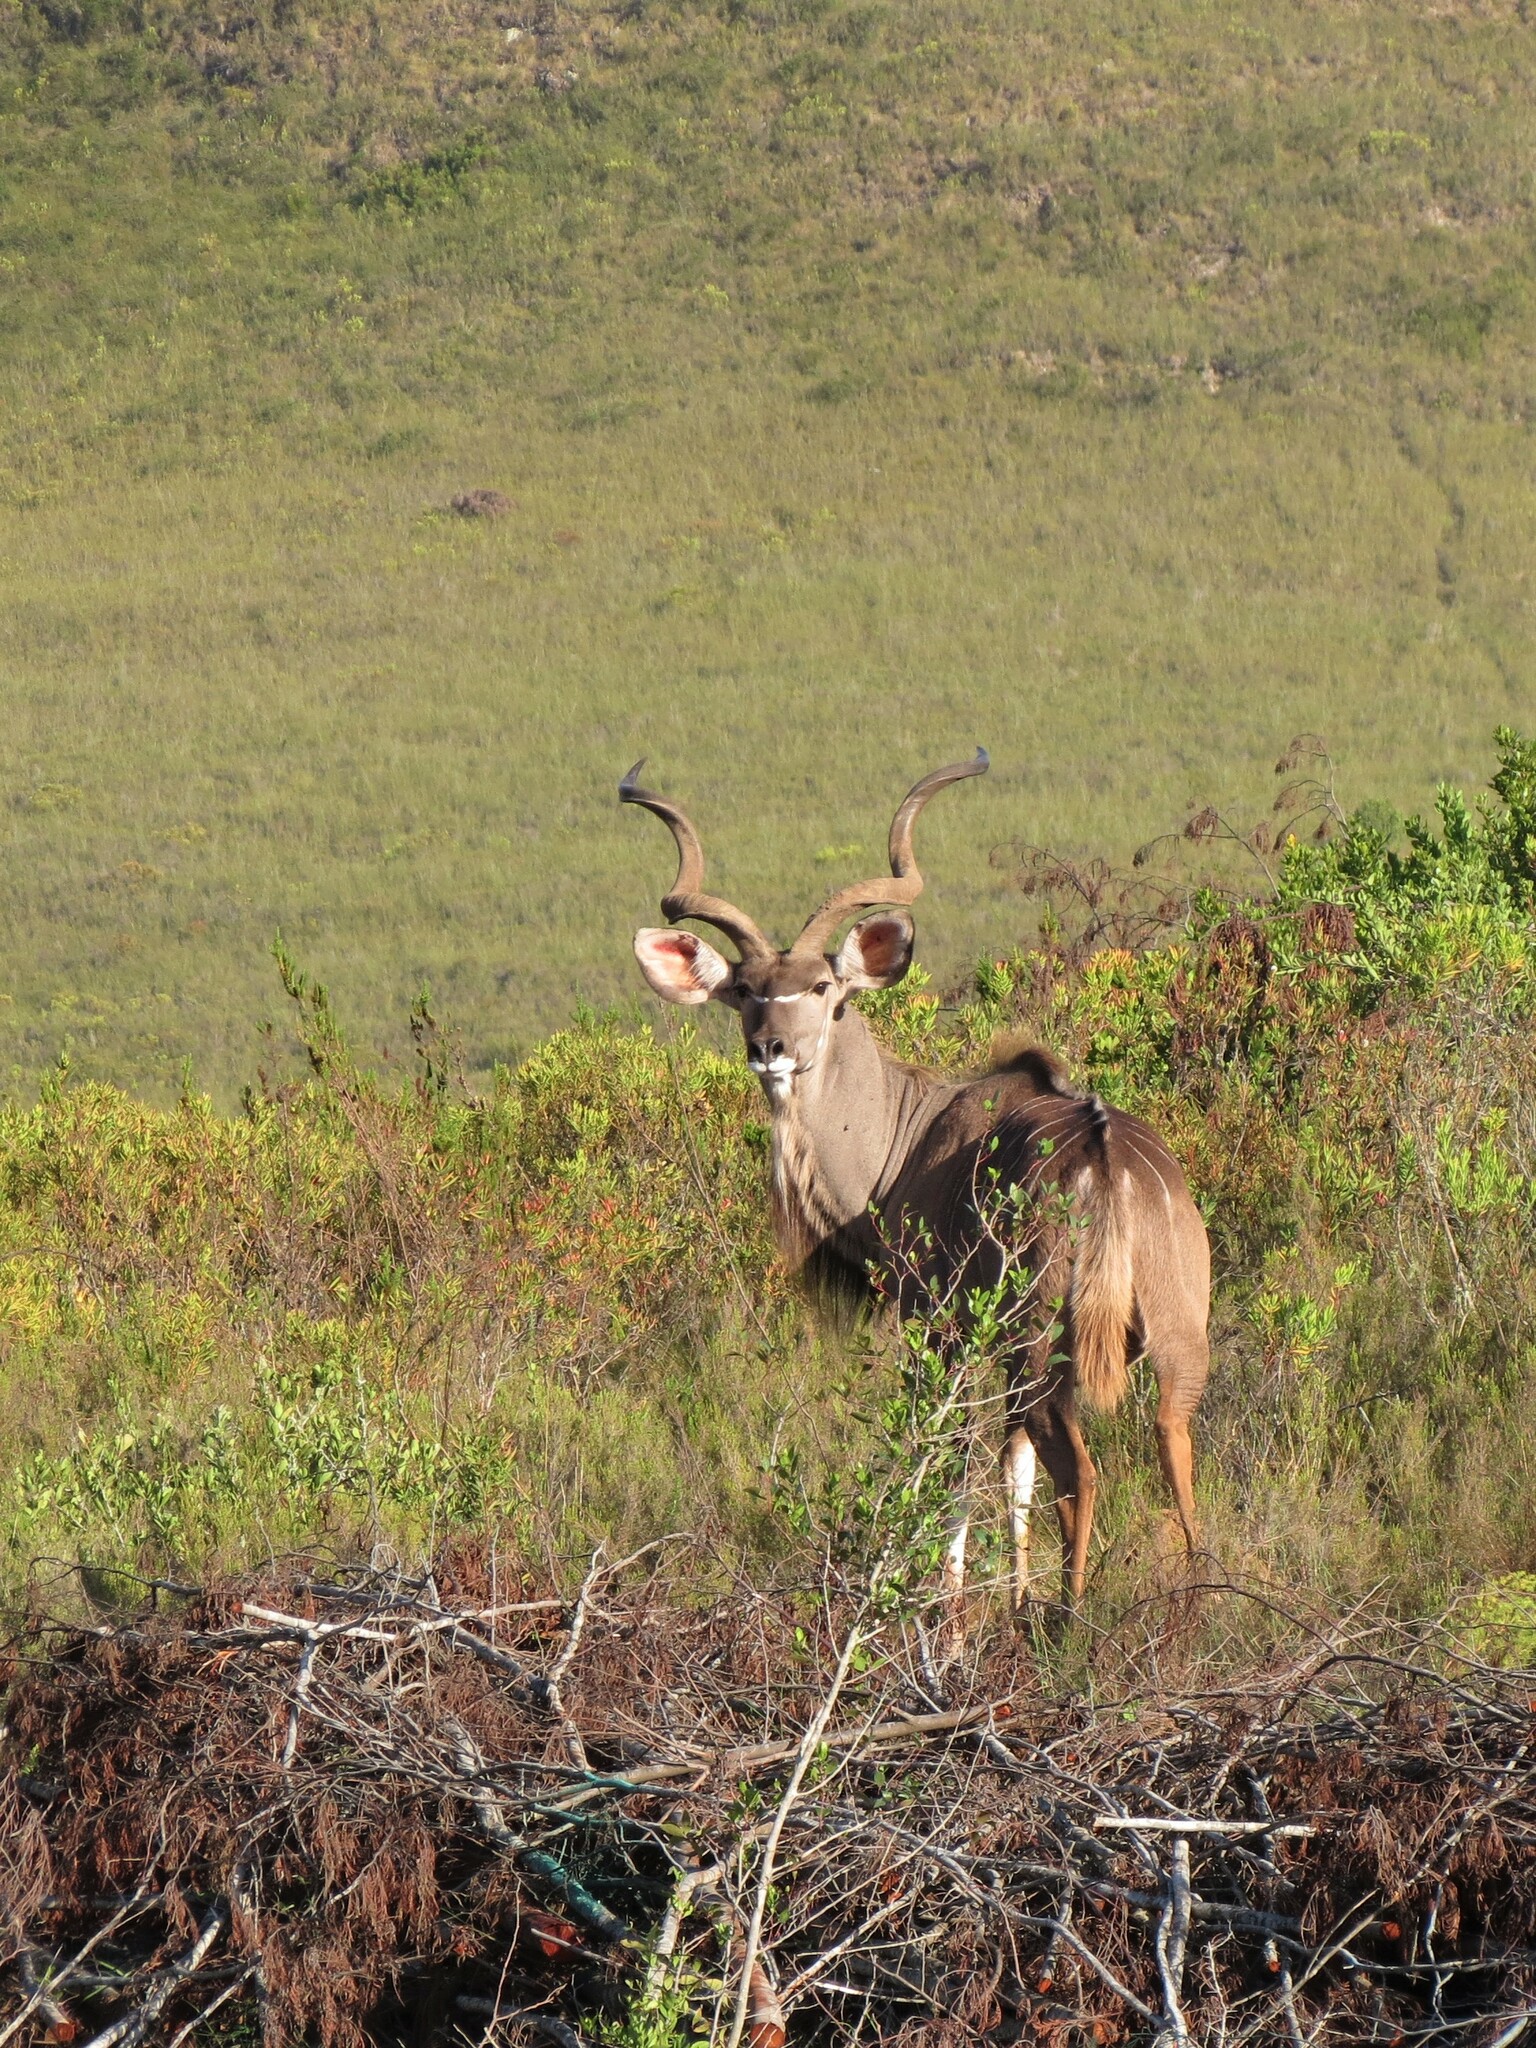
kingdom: Animalia
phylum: Chordata
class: Mammalia
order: Artiodactyla
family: Bovidae
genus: Tragelaphus
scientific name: Tragelaphus strepsiceros
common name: Greater kudu
